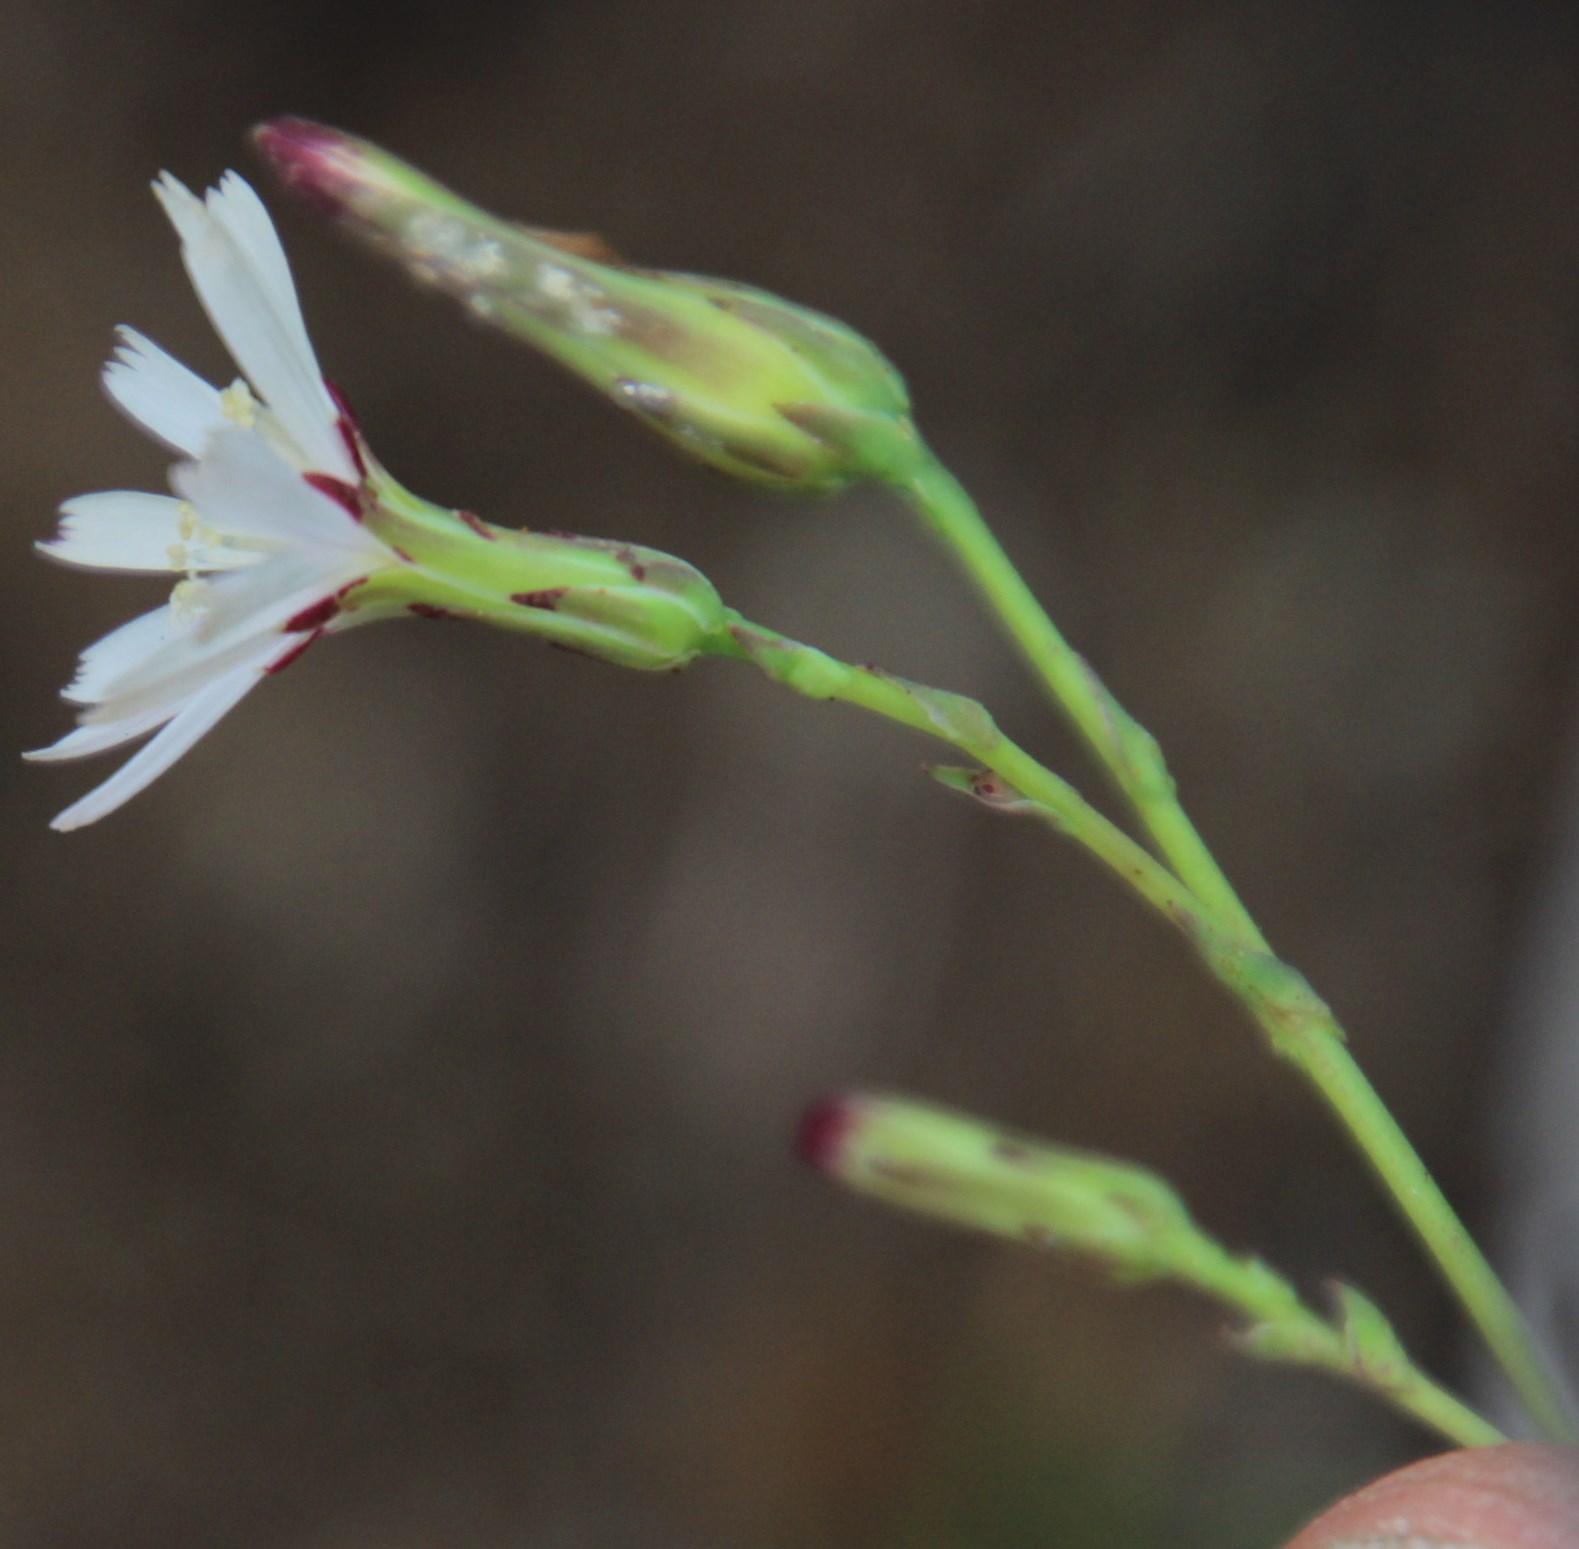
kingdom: Plantae
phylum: Tracheophyta
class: Magnoliopsida
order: Asterales
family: Asteraceae
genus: Lactuca
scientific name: Lactuca inermis
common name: Wild lettuce
